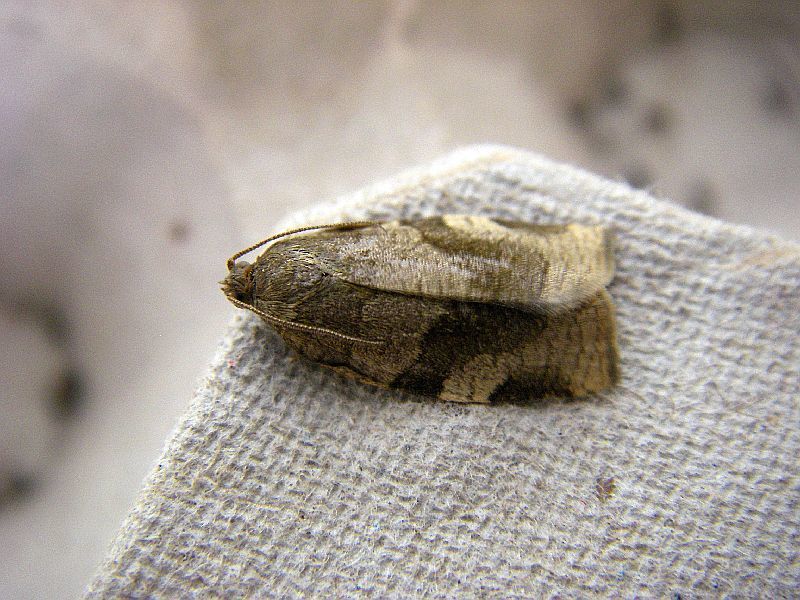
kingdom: Animalia
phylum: Arthropoda
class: Insecta
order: Lepidoptera
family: Tortricidae
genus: Pandemis
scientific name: Pandemis cerasana
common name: Barred fruit-tree tortrix
